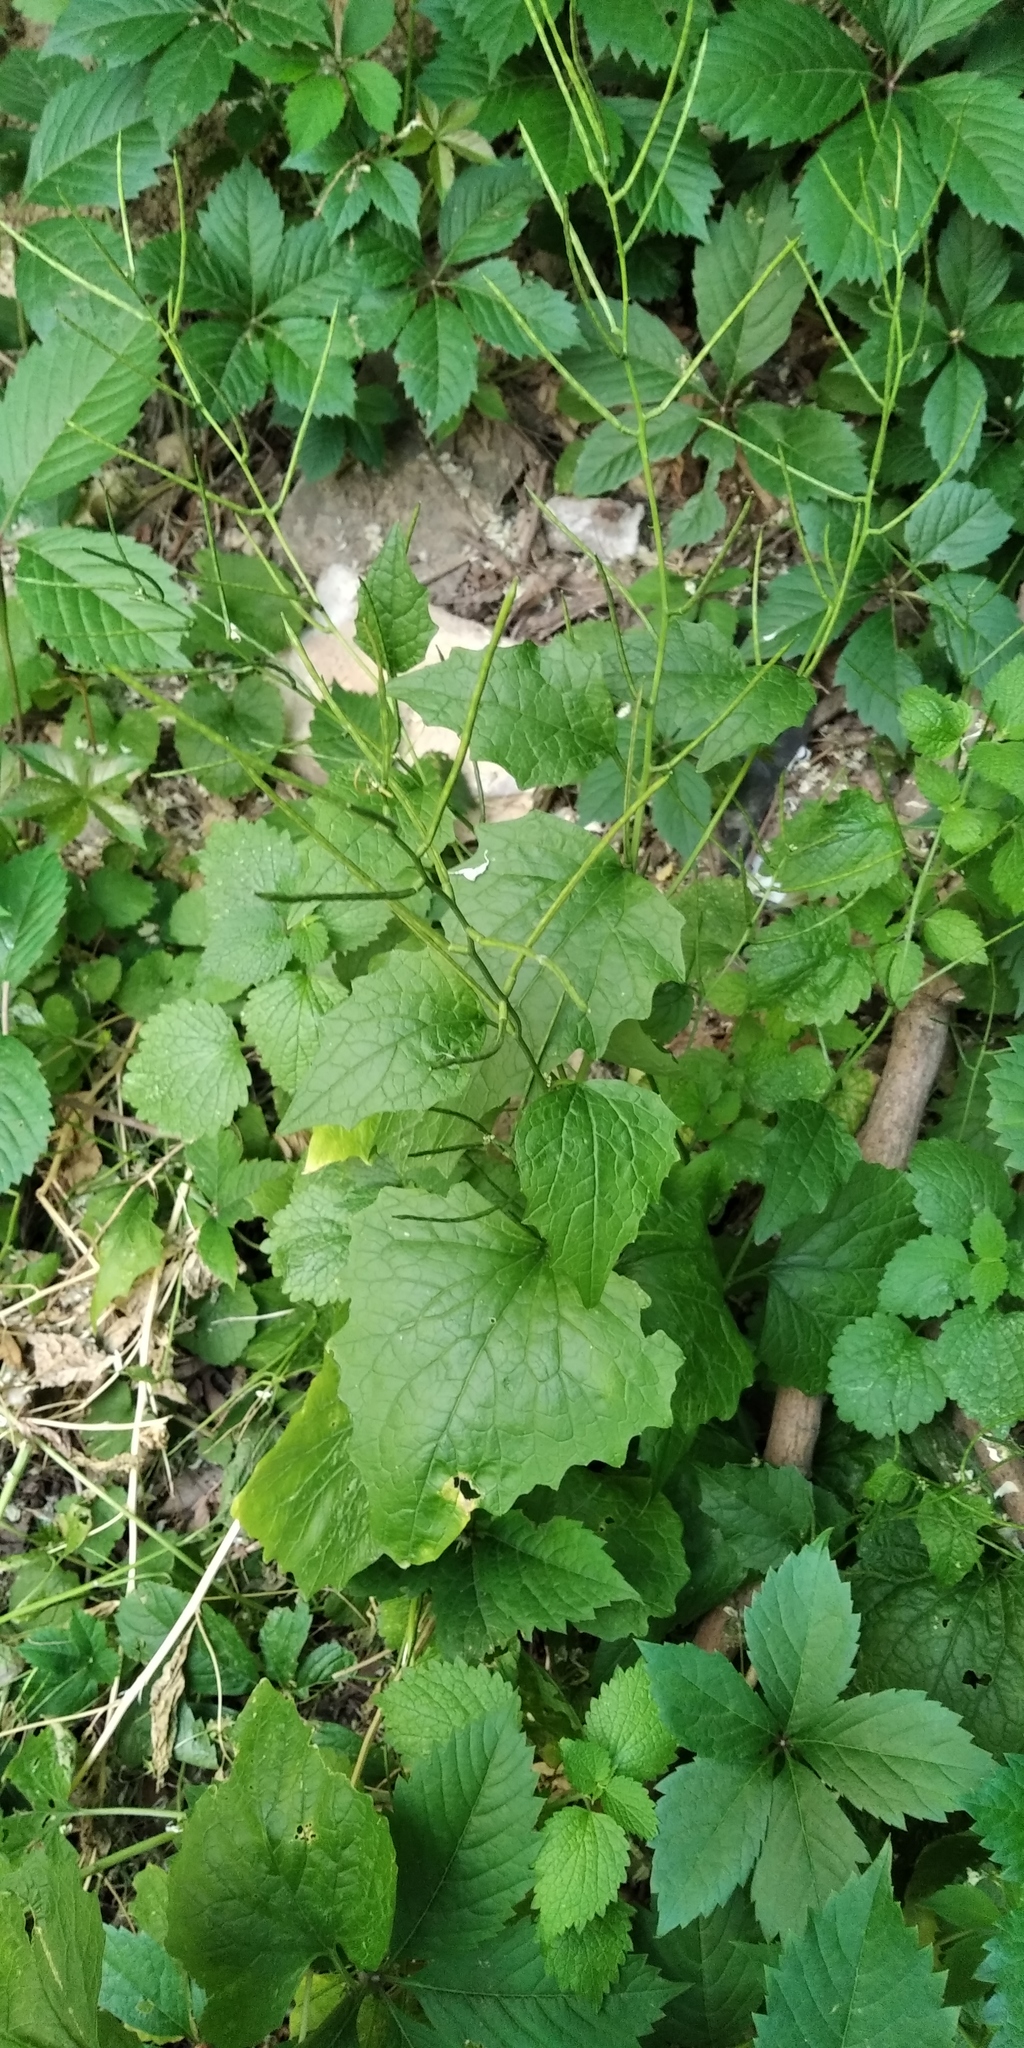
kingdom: Plantae
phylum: Tracheophyta
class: Magnoliopsida
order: Brassicales
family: Brassicaceae
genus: Alliaria
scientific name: Alliaria petiolata
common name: Garlic mustard
